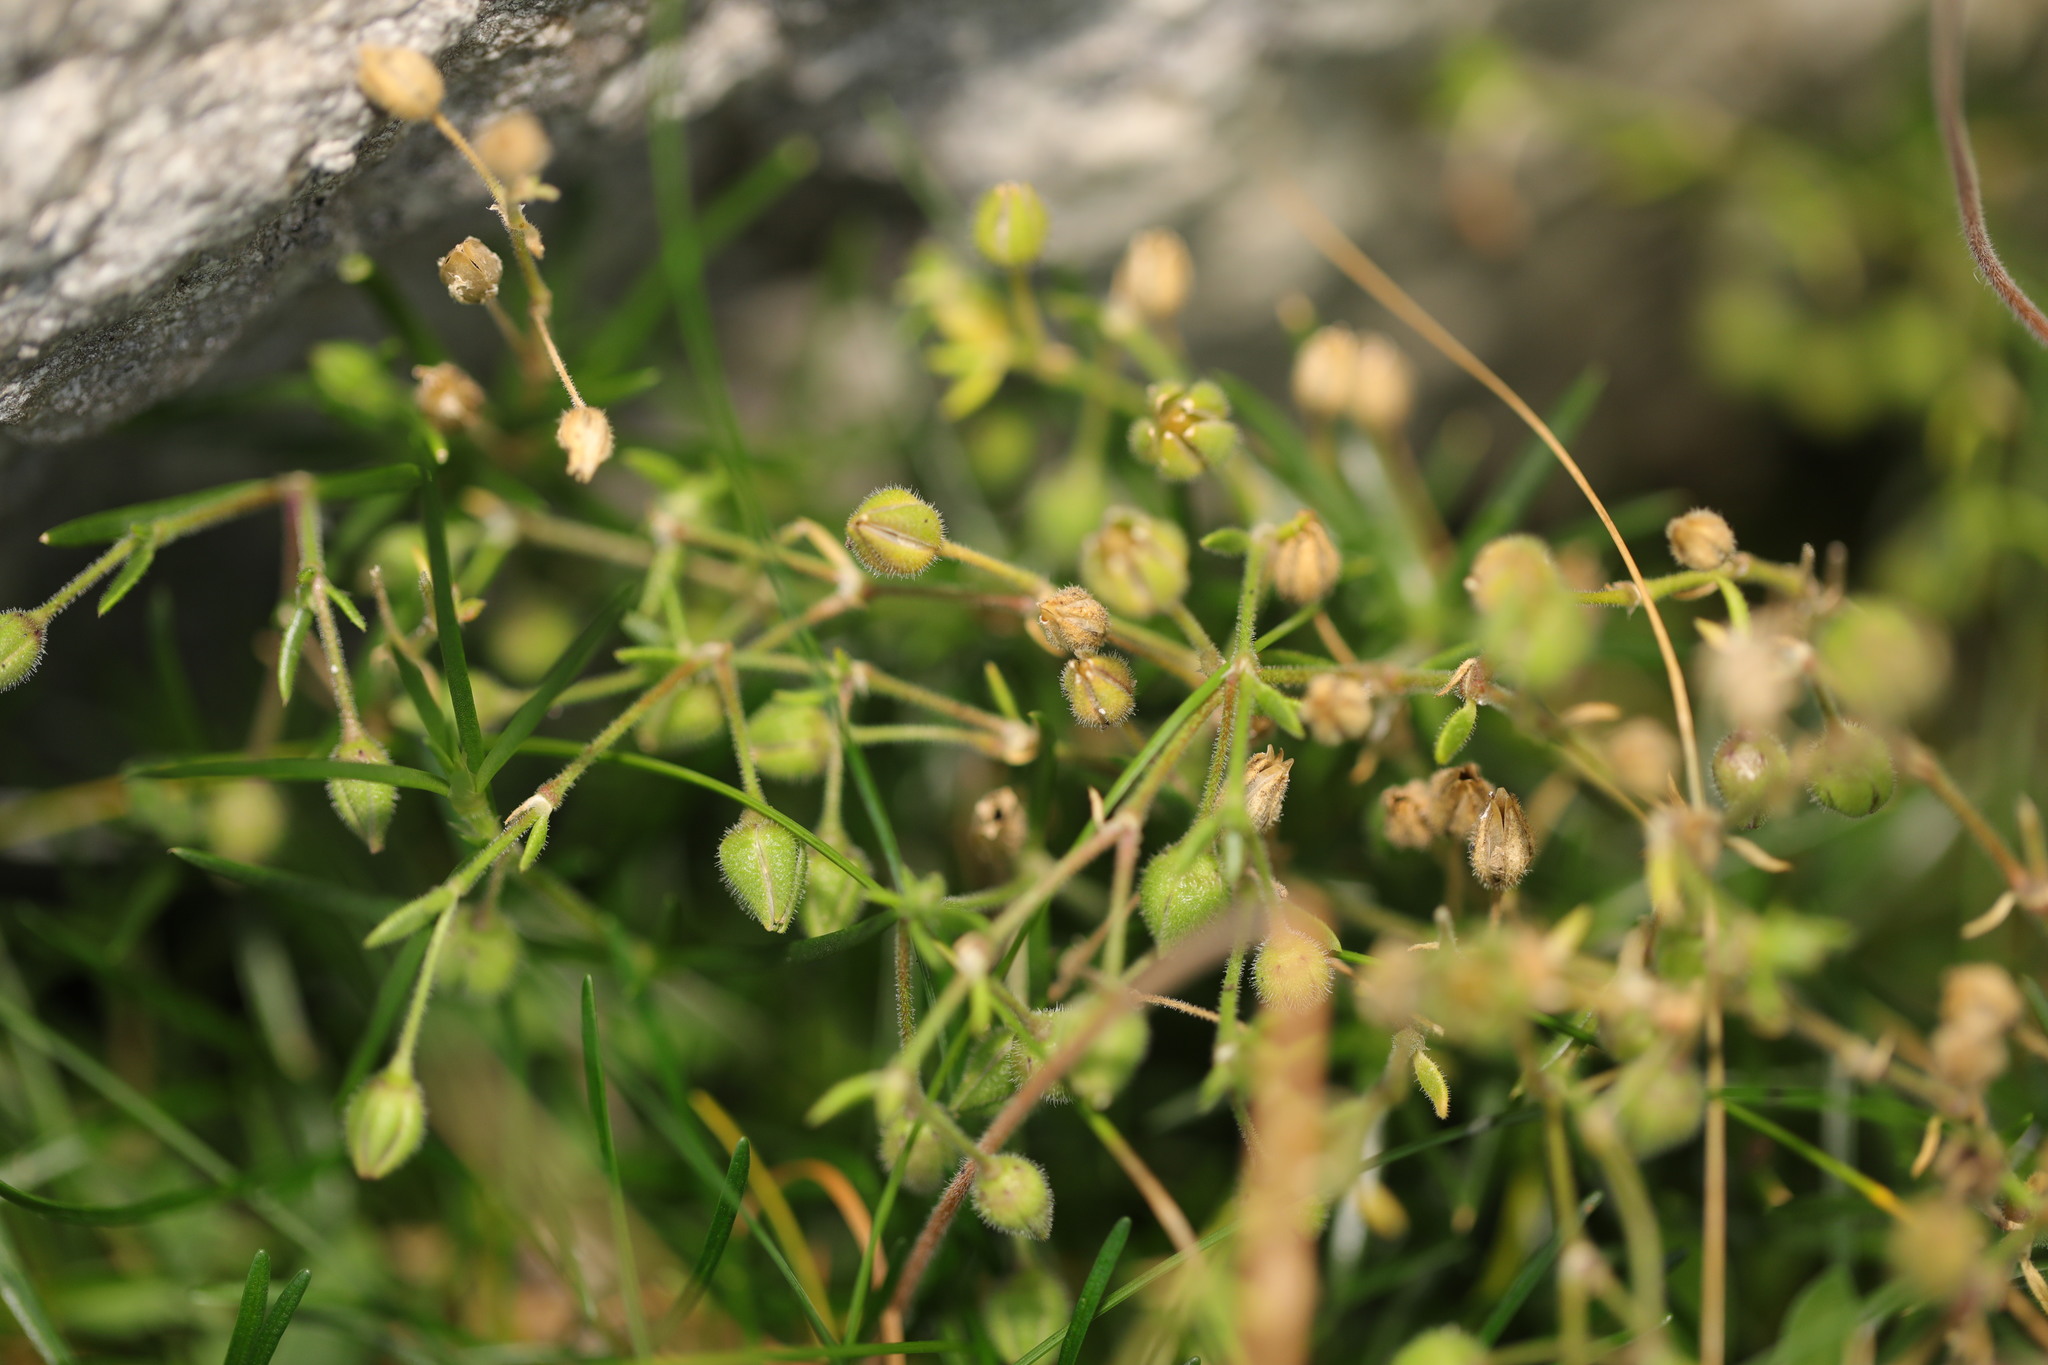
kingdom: Plantae
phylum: Tracheophyta
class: Magnoliopsida
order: Caryophyllales
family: Caryophyllaceae
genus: Spergula
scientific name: Spergula arvensis
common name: Corn spurrey
